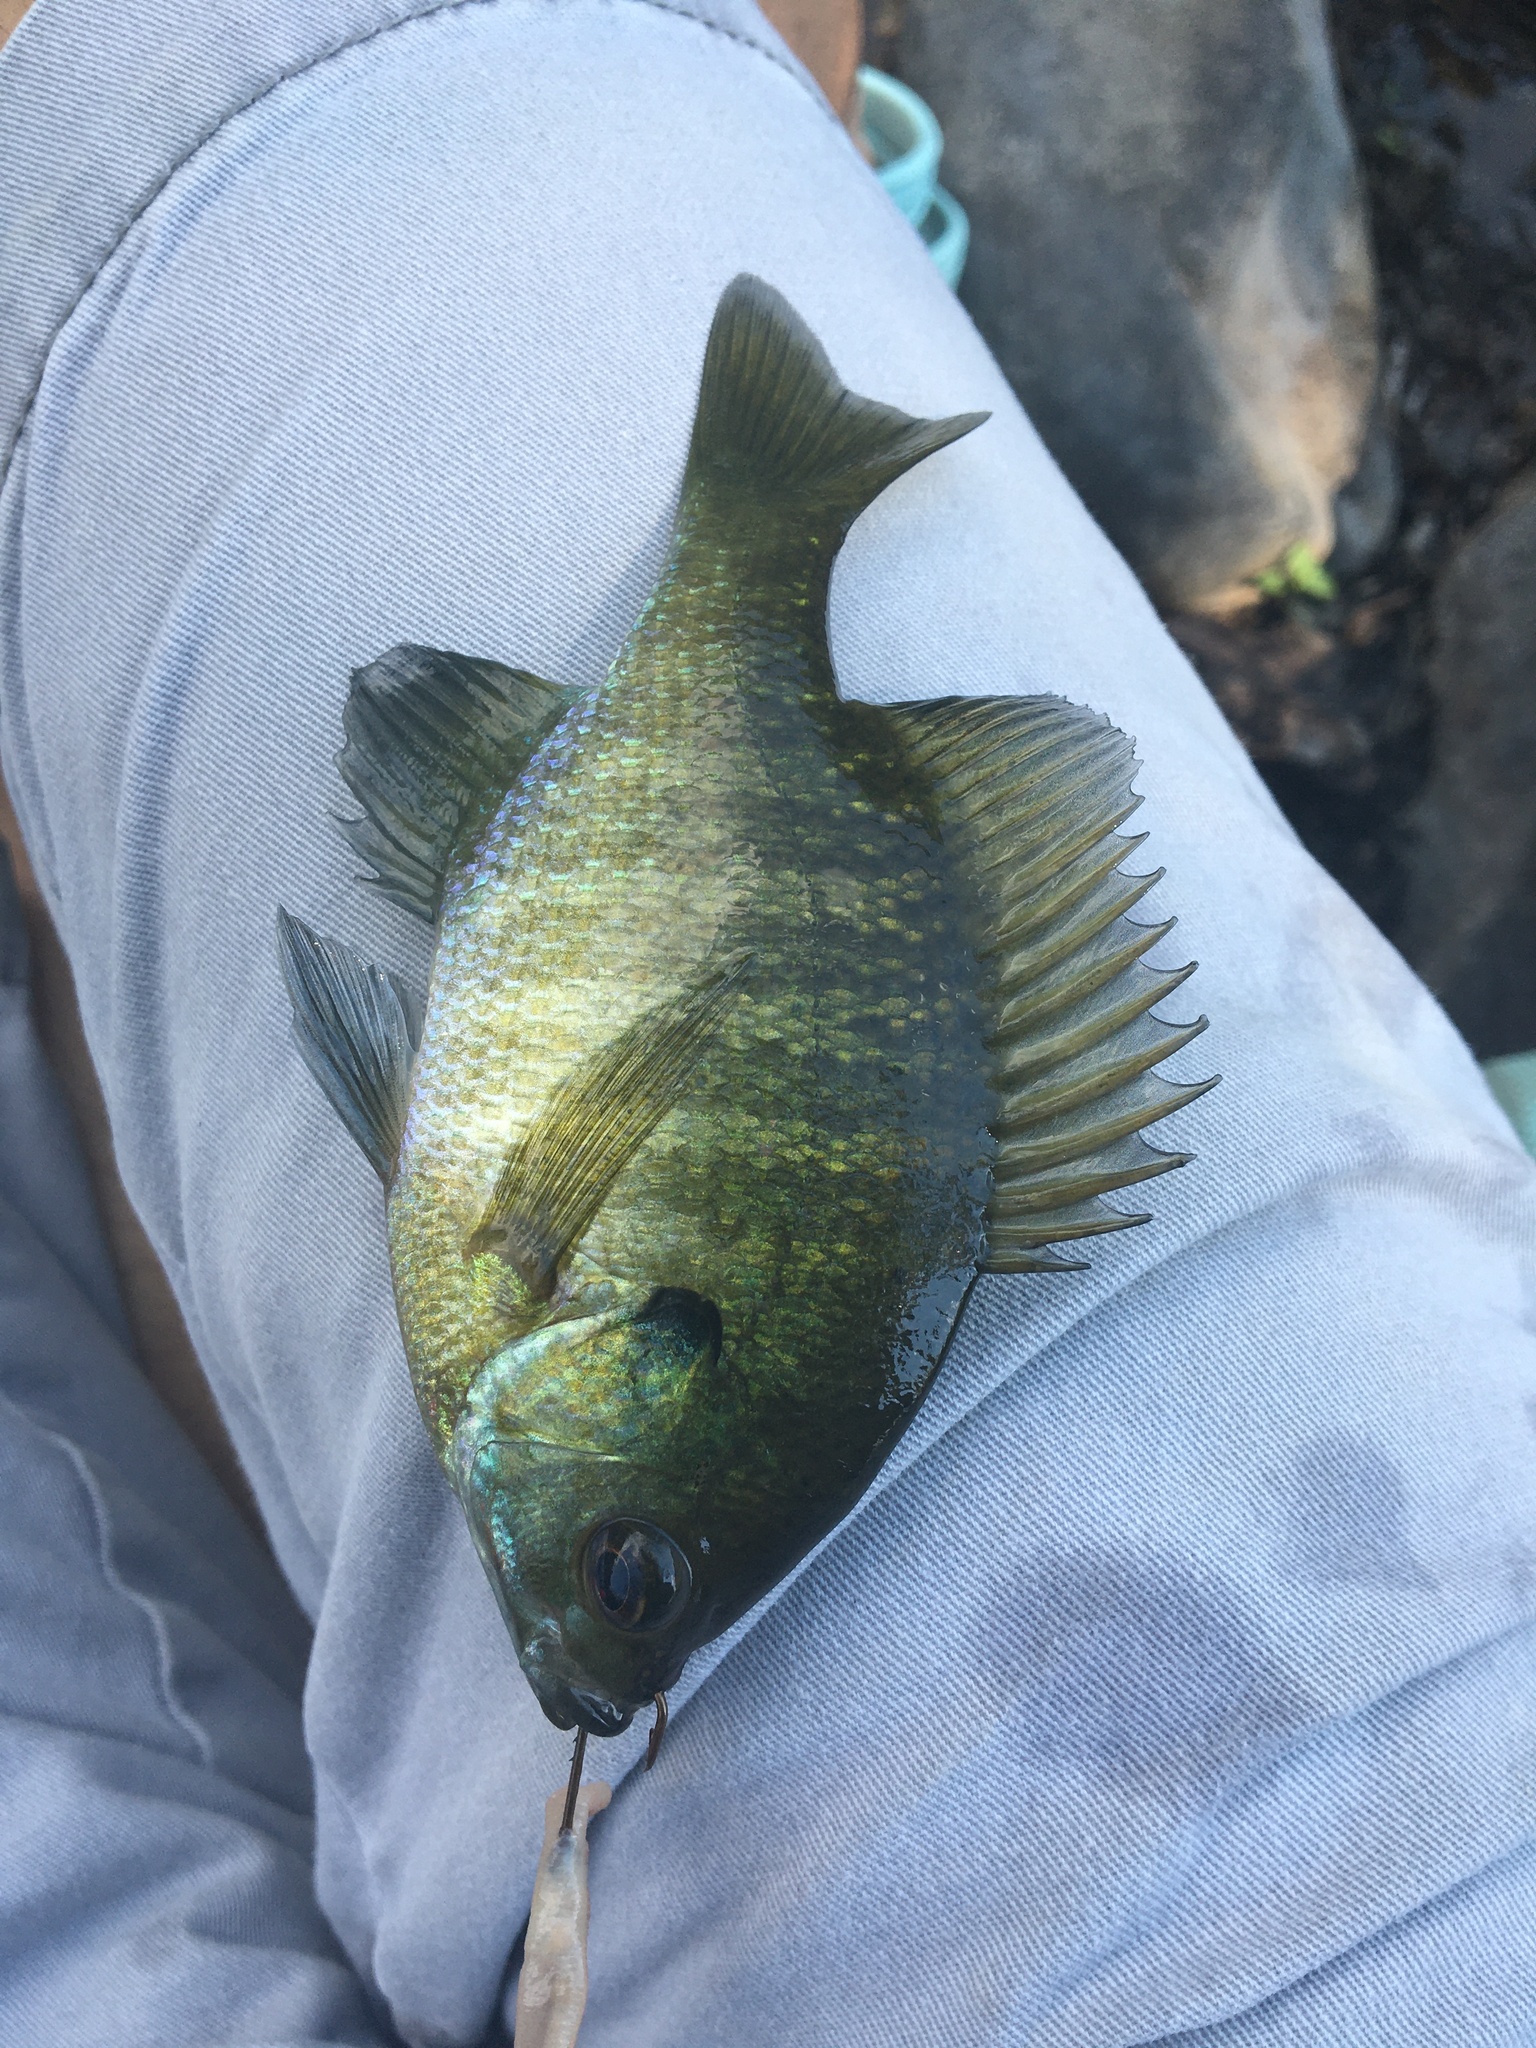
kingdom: Animalia
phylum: Chordata
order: Perciformes
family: Centrarchidae
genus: Lepomis
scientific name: Lepomis macrochirus
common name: Bluegill
